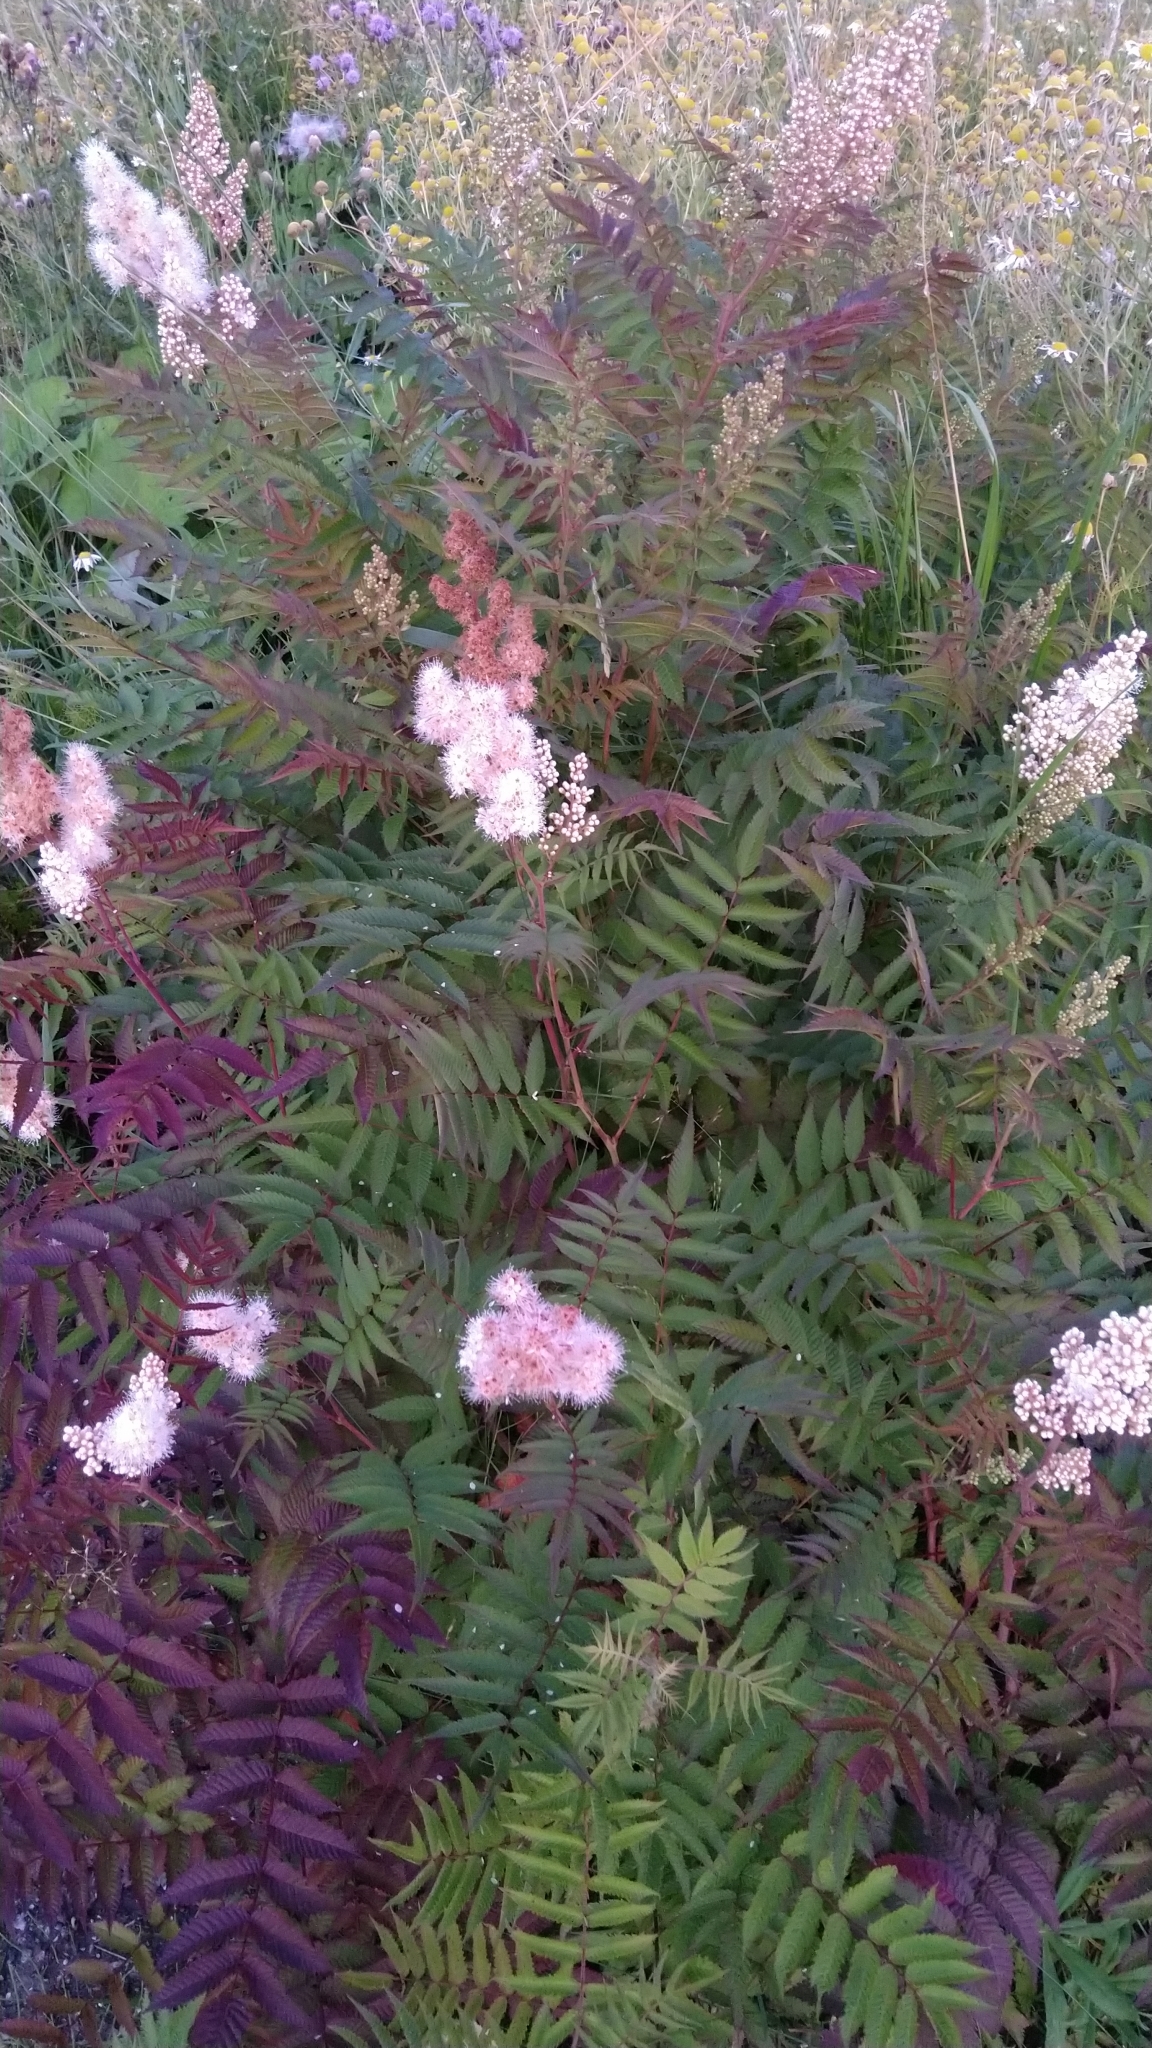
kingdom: Plantae
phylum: Tracheophyta
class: Magnoliopsida
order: Rosales
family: Rosaceae
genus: Sorbaria
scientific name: Sorbaria sorbifolia
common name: False spiraea
